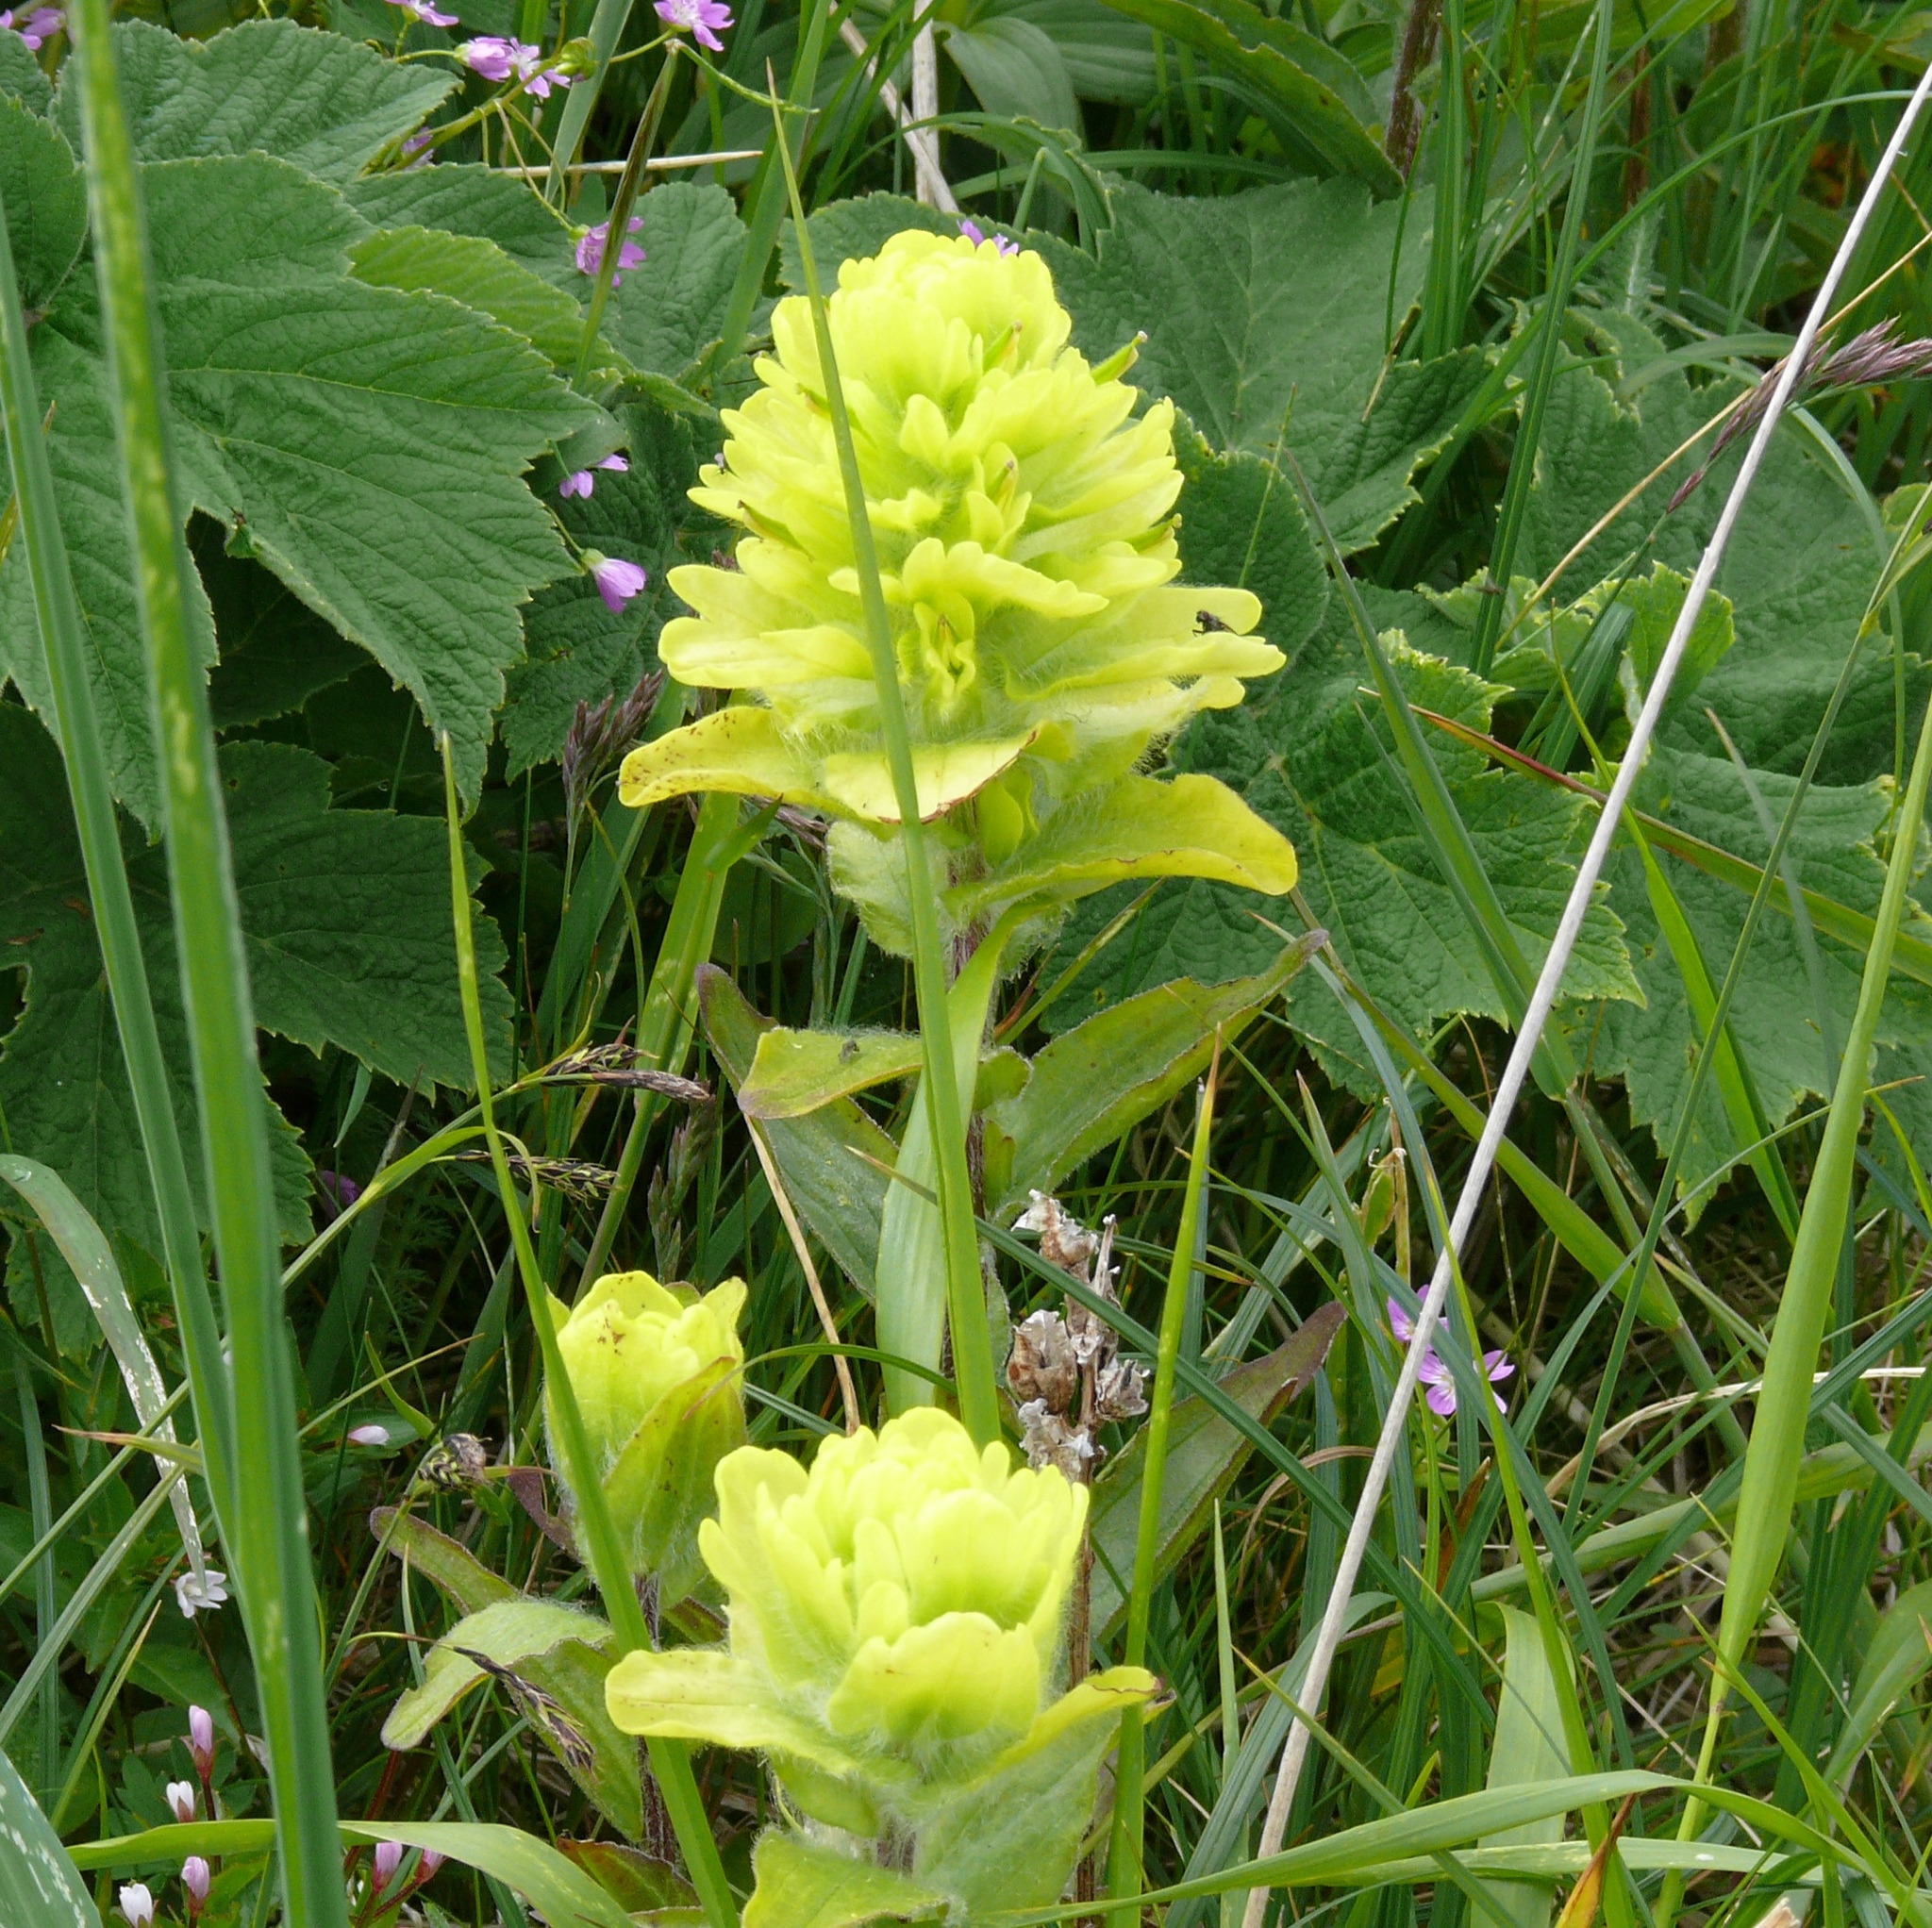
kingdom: Plantae
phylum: Tracheophyta
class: Magnoliopsida
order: Lamiales
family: Orobanchaceae
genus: Castilleja
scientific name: Castilleja unalaschcensis
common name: Unalaska paintbrush
